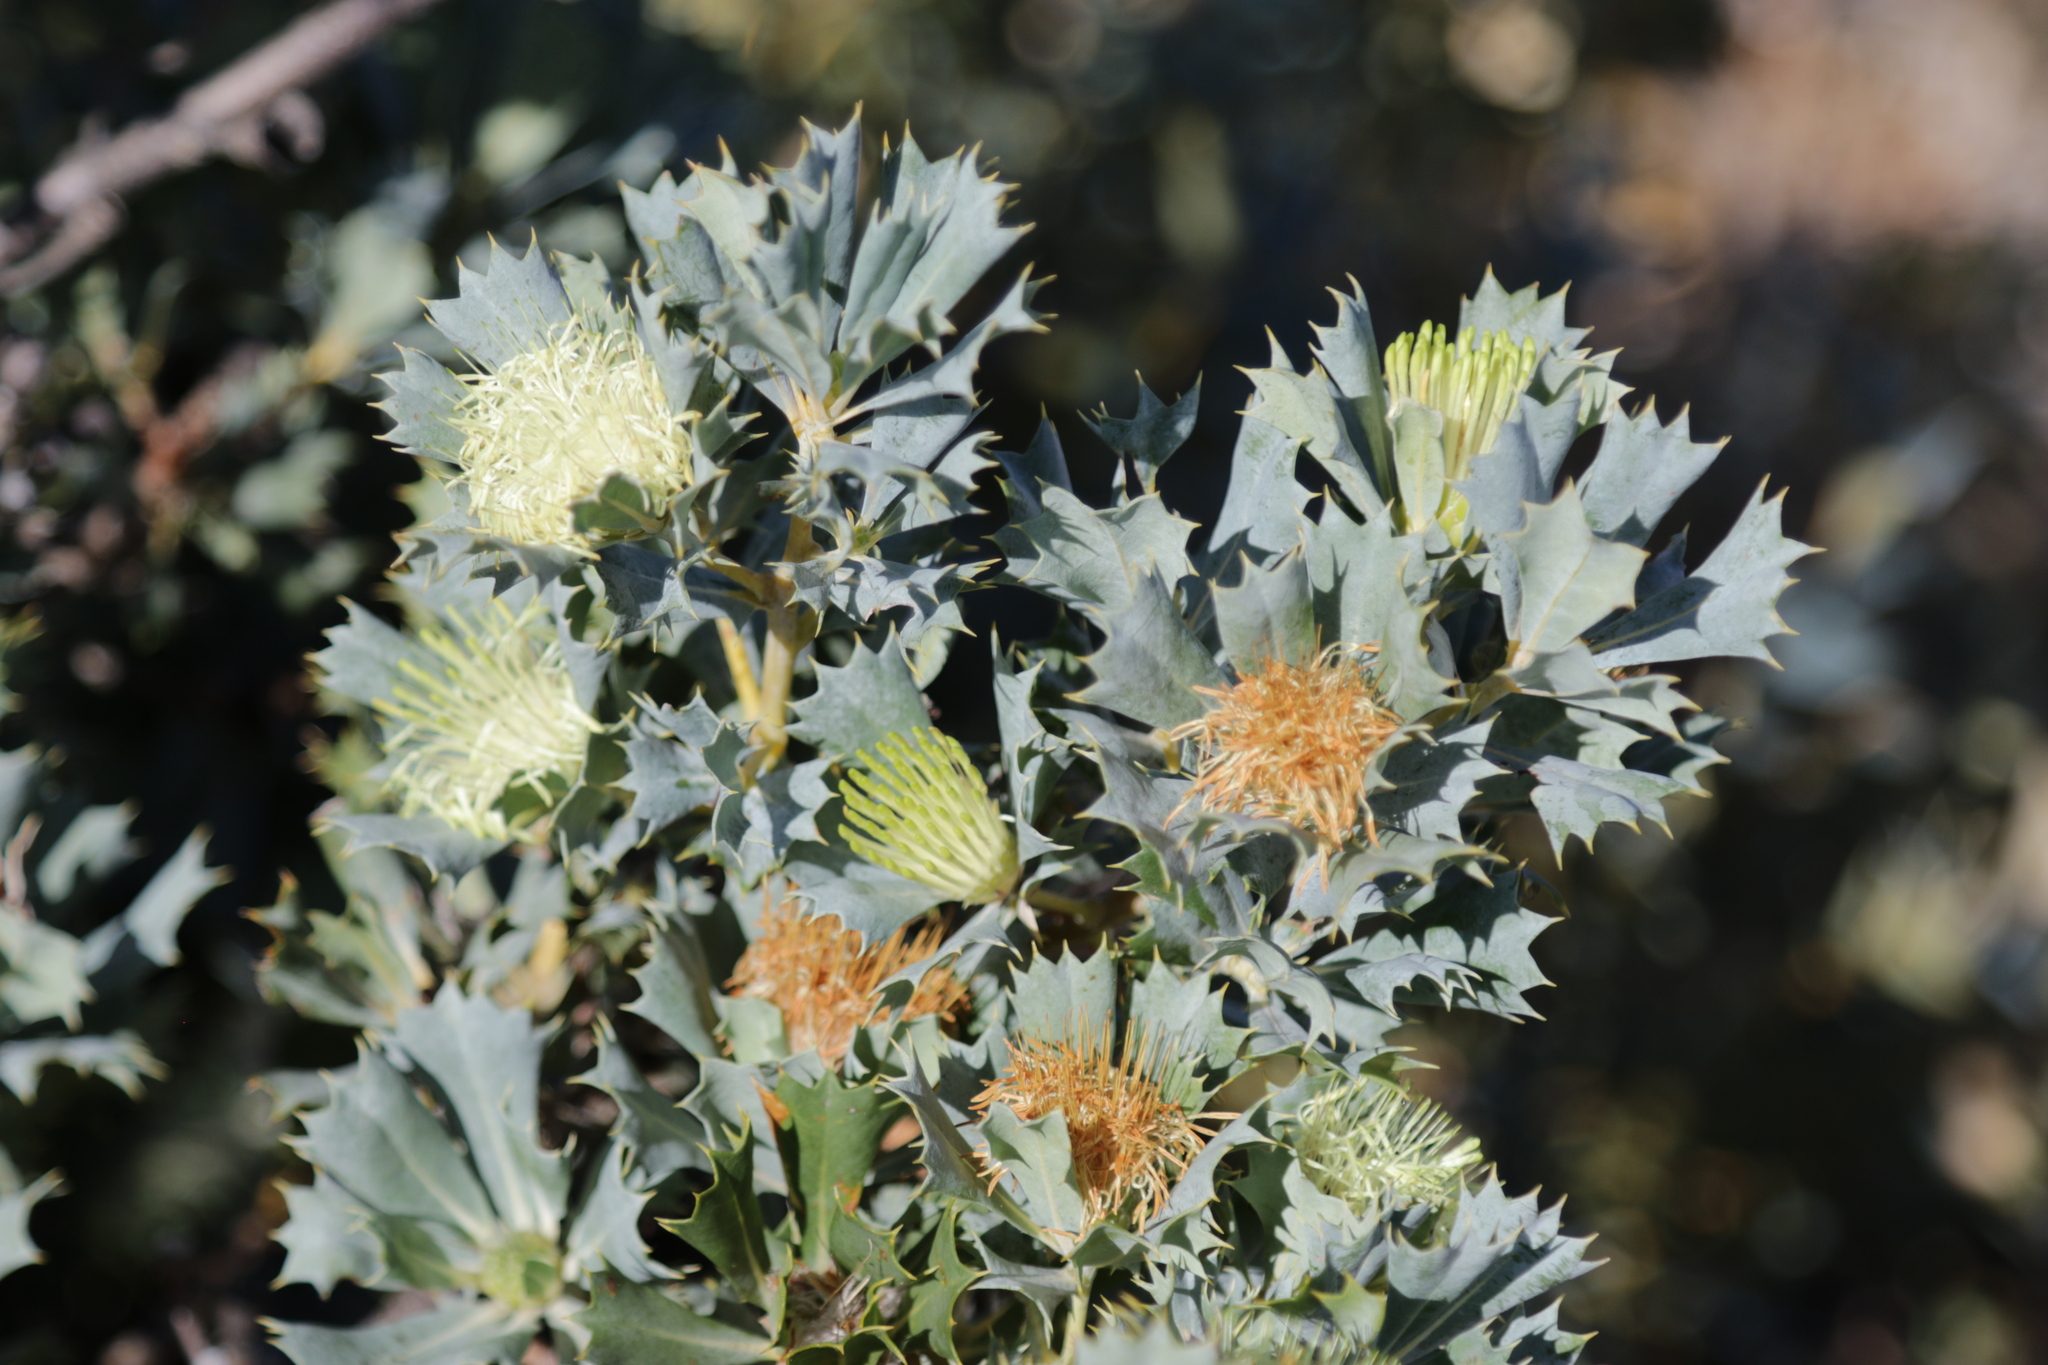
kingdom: Plantae
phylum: Tracheophyta
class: Magnoliopsida
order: Proteales
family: Proteaceae
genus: Banksia
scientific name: Banksia sessilis
